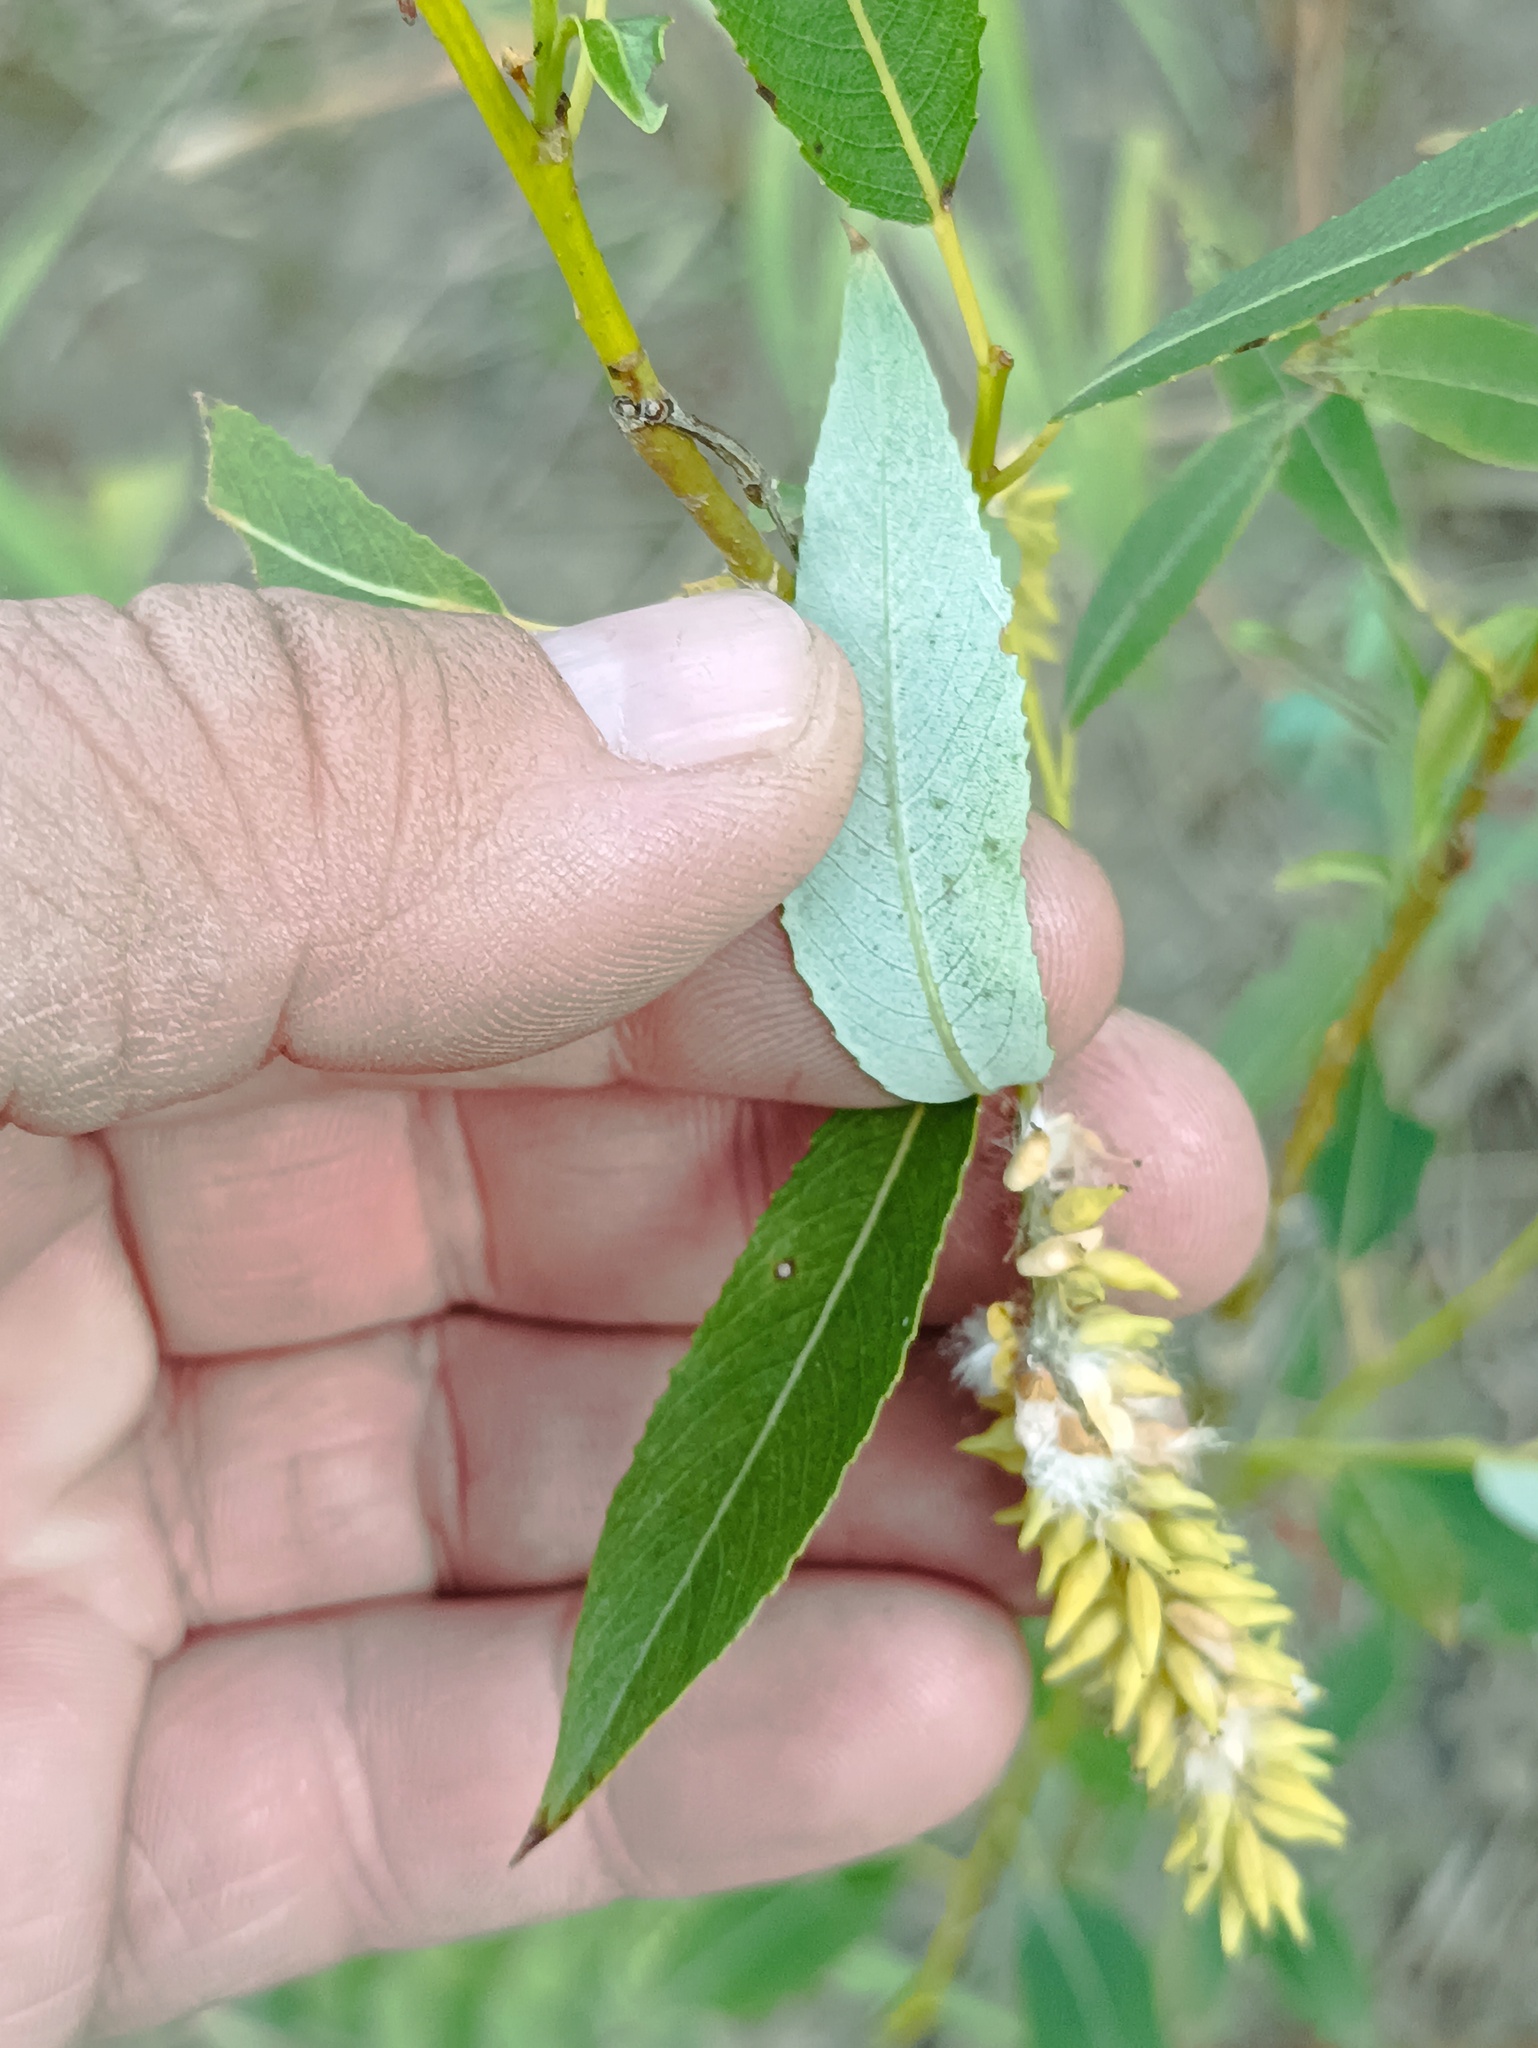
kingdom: Plantae
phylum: Tracheophyta
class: Magnoliopsida
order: Malpighiales
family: Salicaceae
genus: Salix
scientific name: Salix triandra
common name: Almond willow
